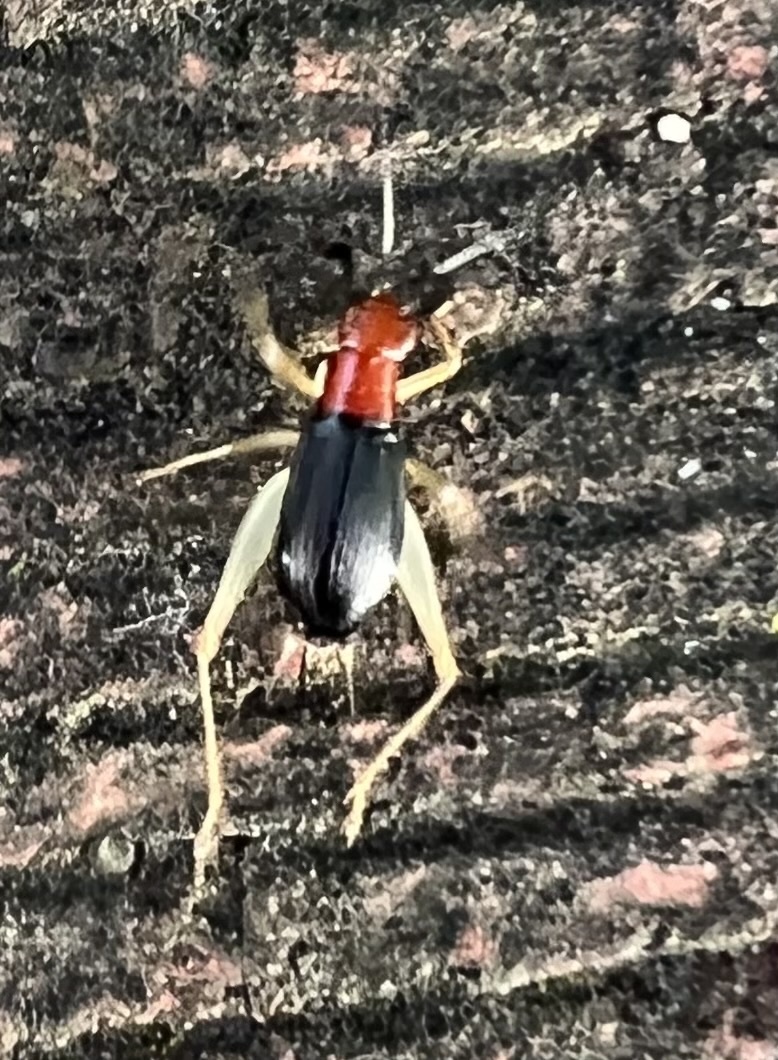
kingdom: Animalia
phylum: Arthropoda
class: Insecta
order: Orthoptera
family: Trigonidiidae
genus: Phyllopalpus
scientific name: Phyllopalpus pulchellus
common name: Handsome trig
